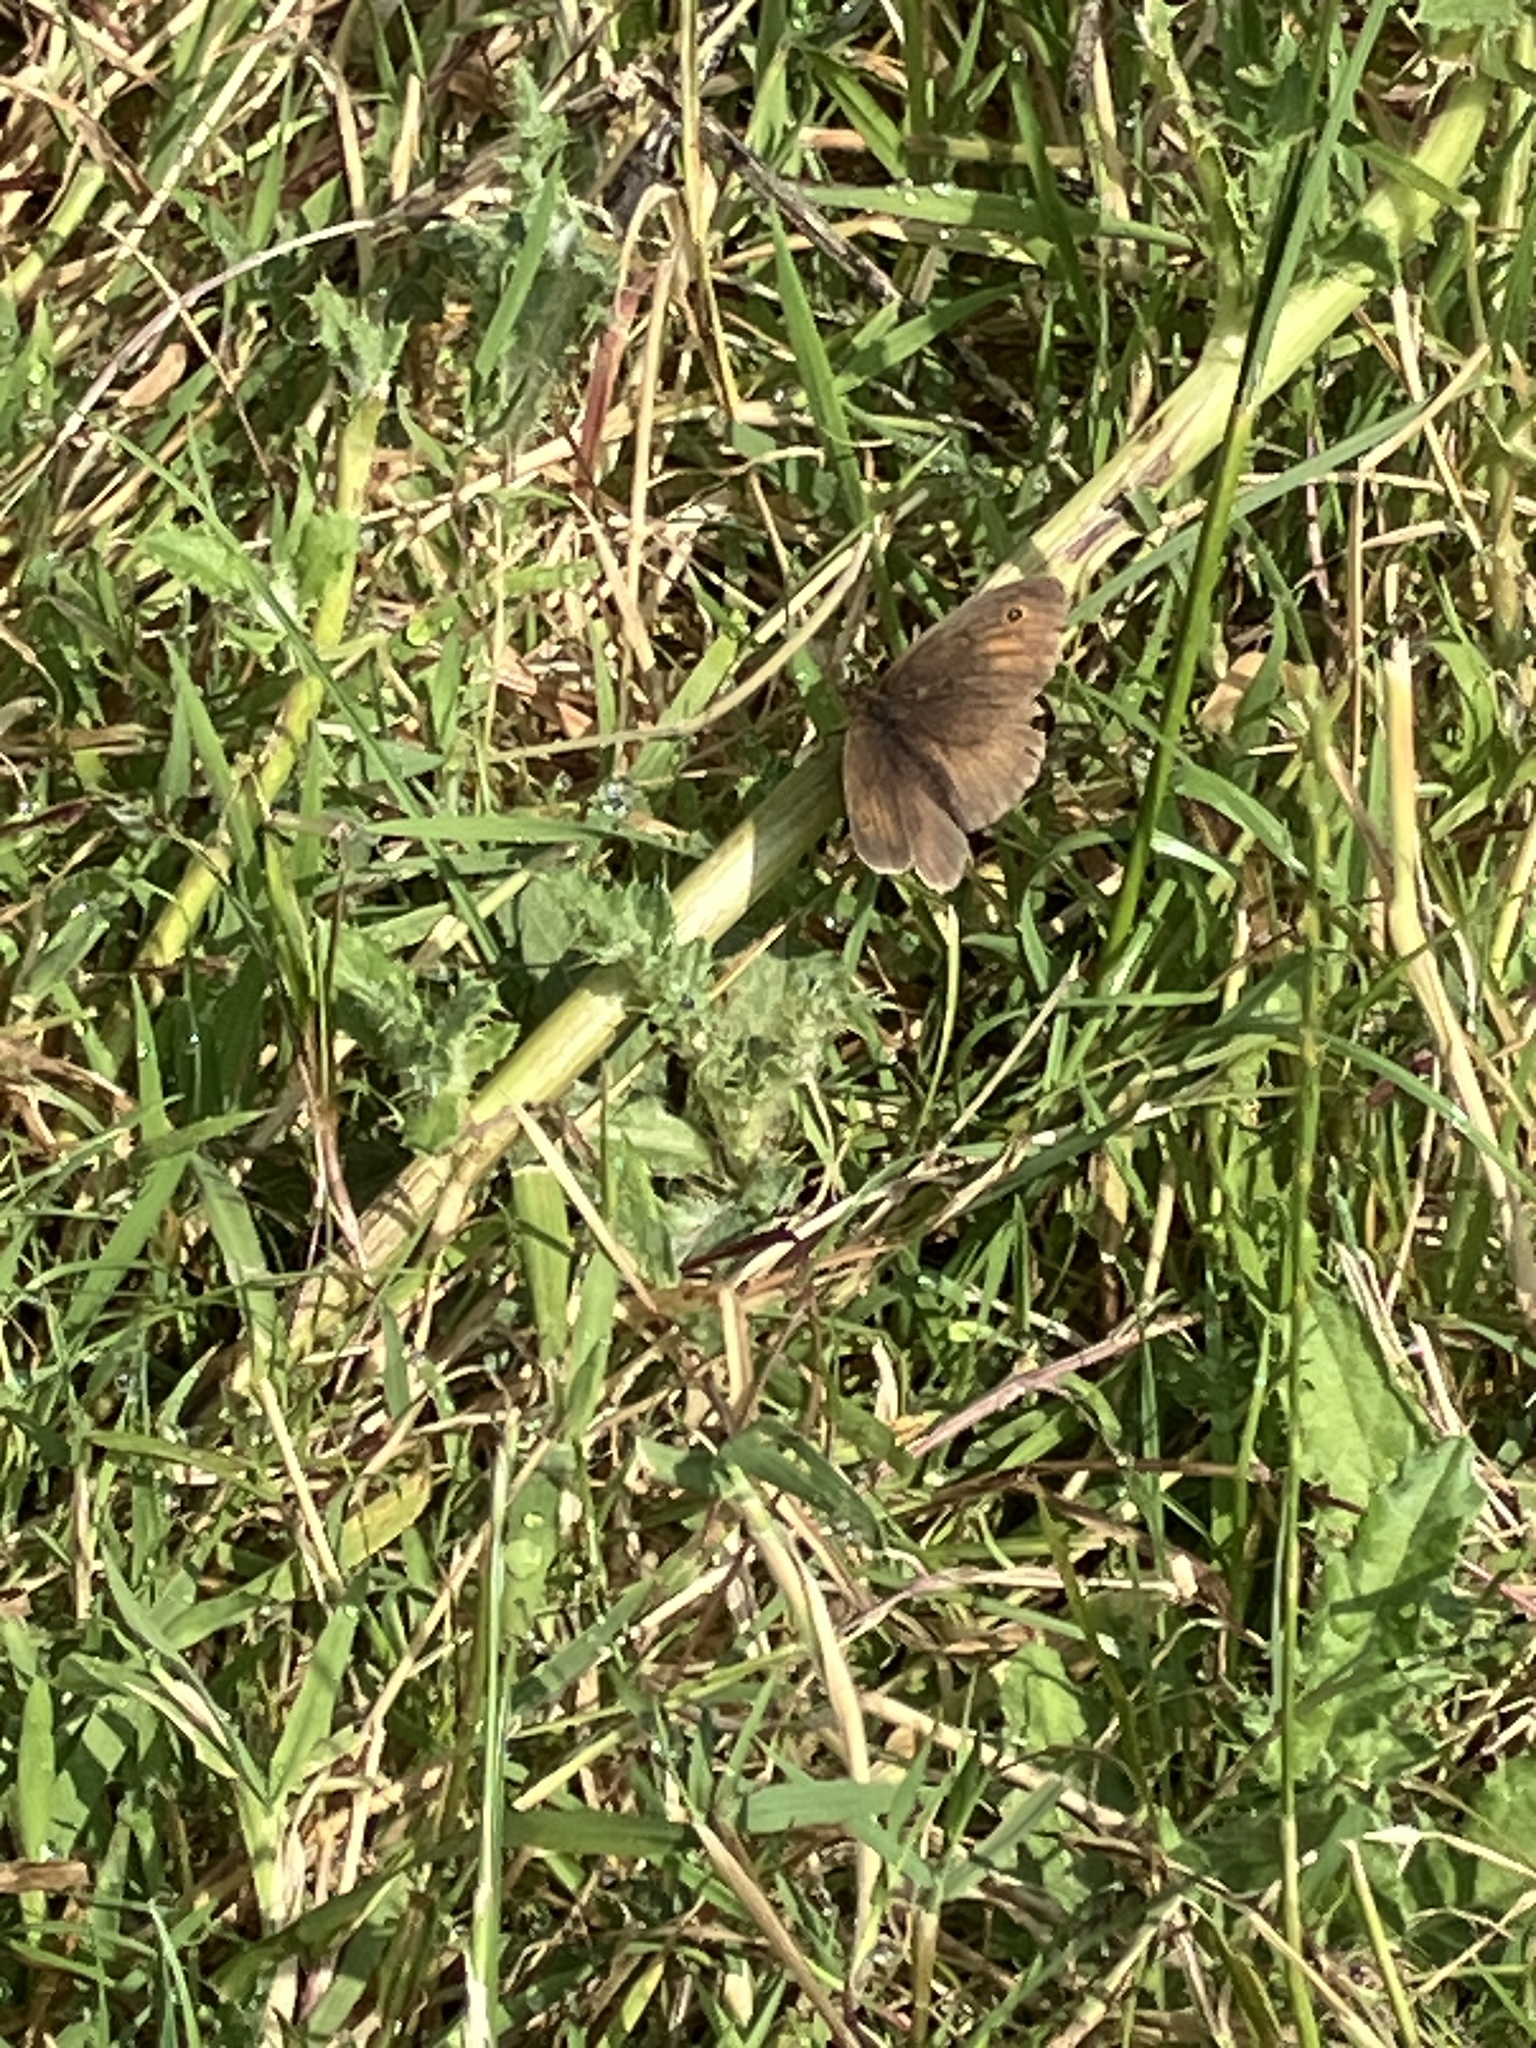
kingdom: Animalia
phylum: Arthropoda
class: Insecta
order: Lepidoptera
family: Nymphalidae
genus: Maniola
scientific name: Maniola jurtina
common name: Meadow brown
